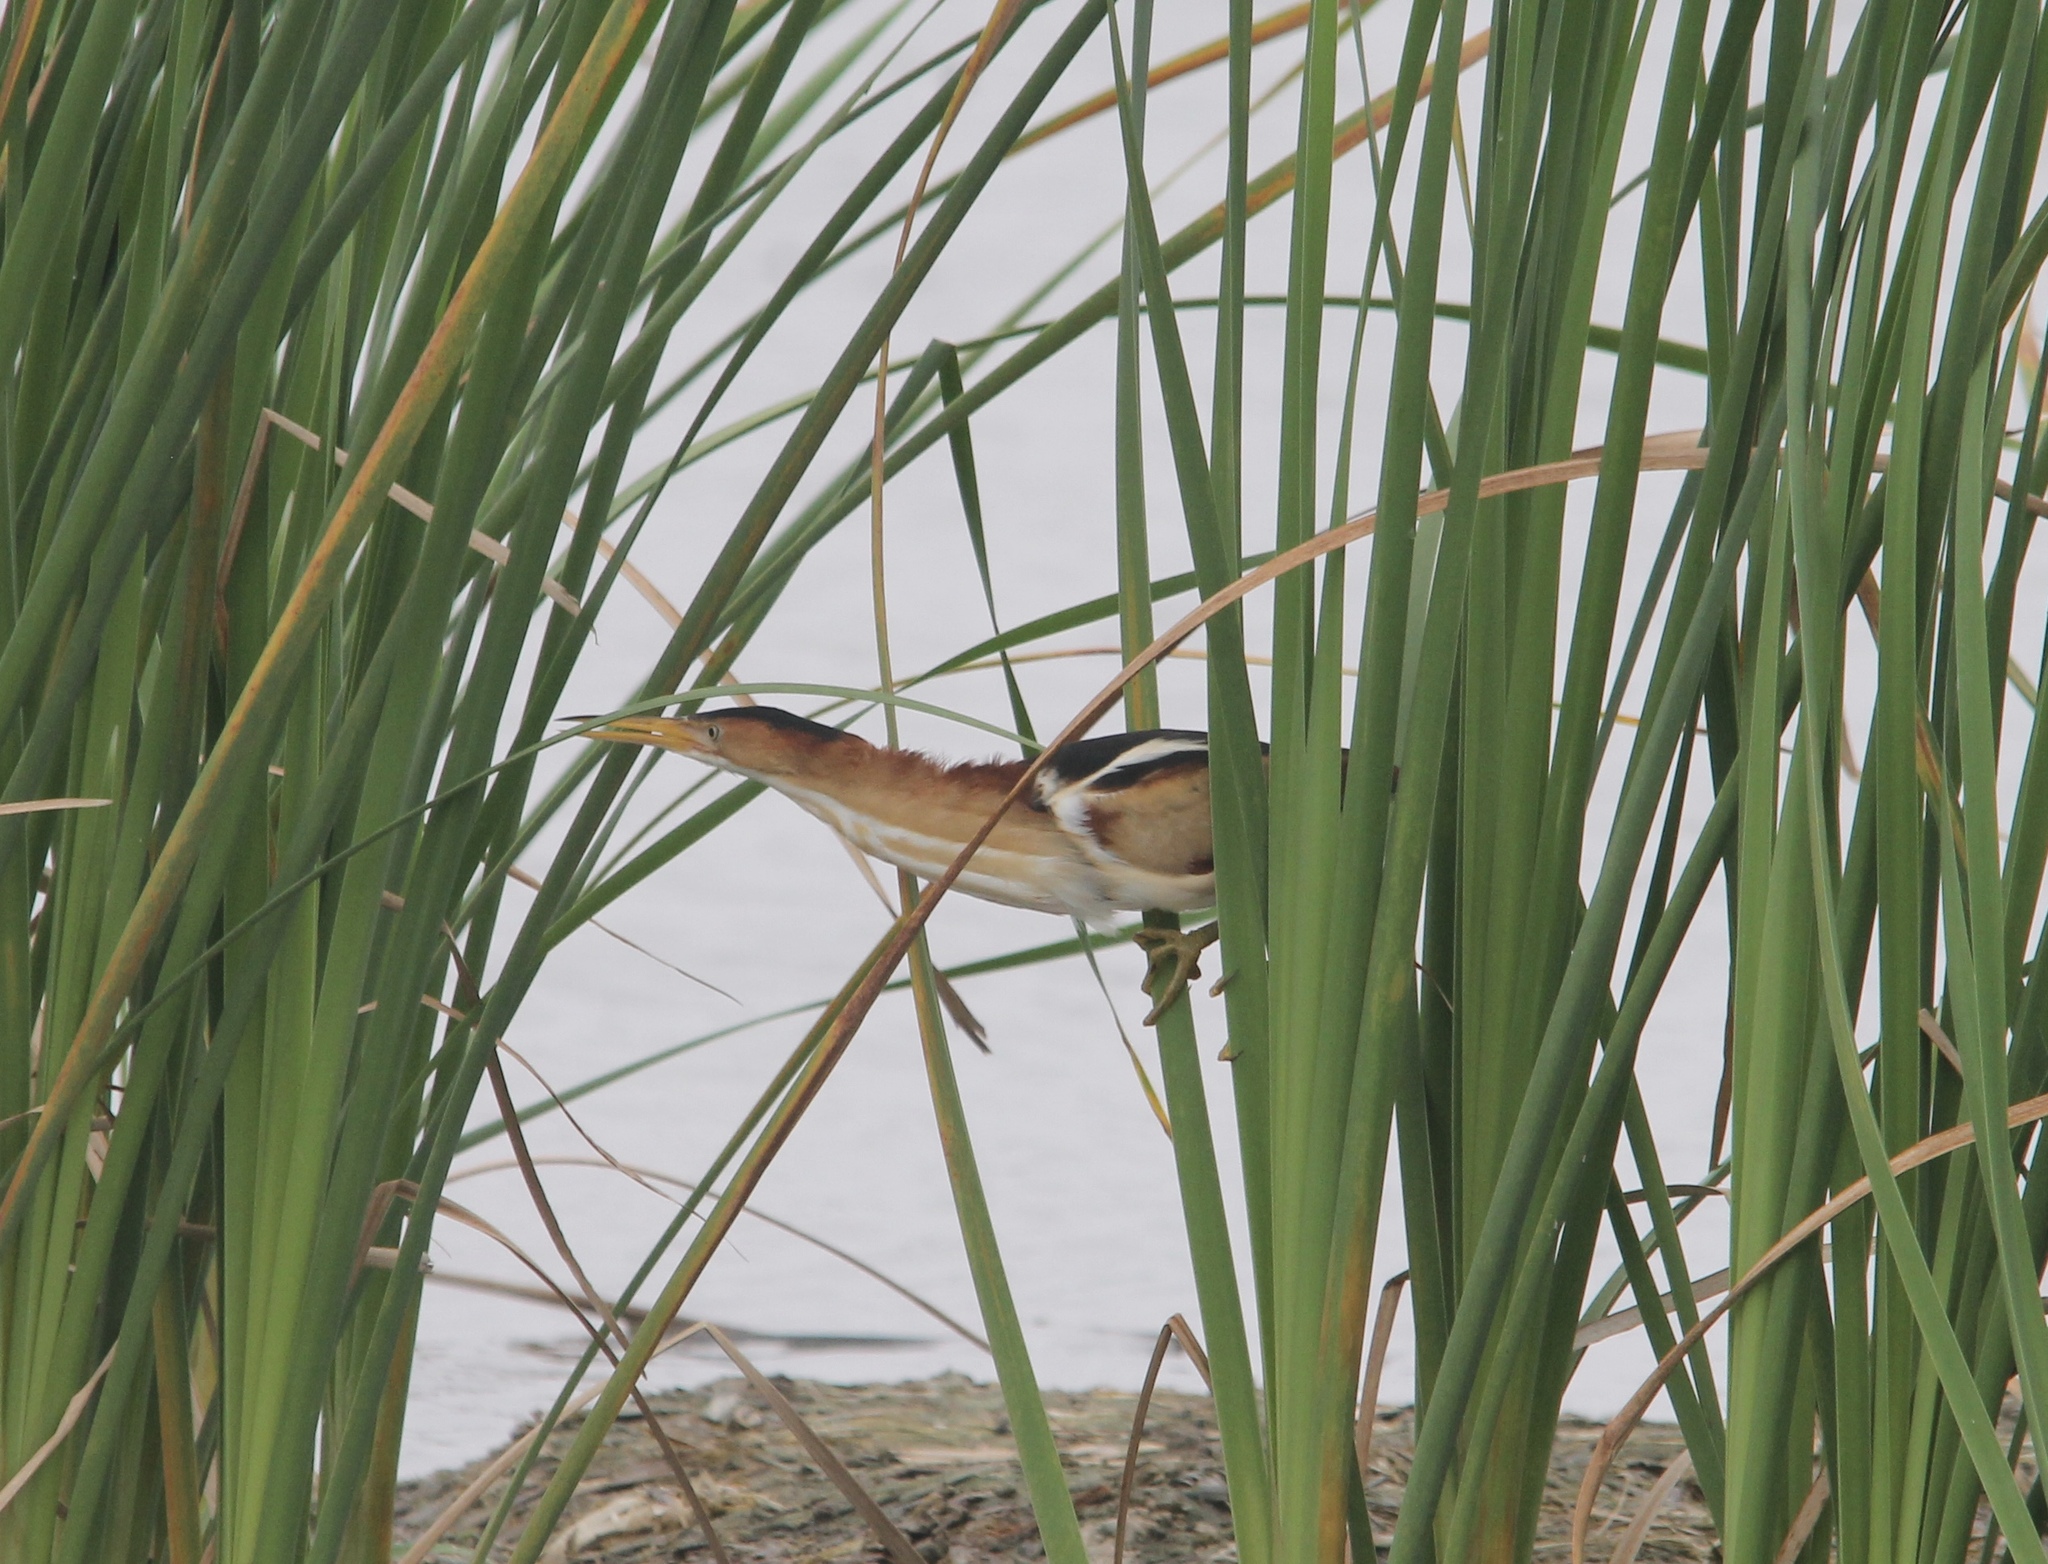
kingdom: Animalia
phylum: Chordata
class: Aves
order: Pelecaniformes
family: Ardeidae
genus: Ixobrychus
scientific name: Ixobrychus exilis
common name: Least bittern
